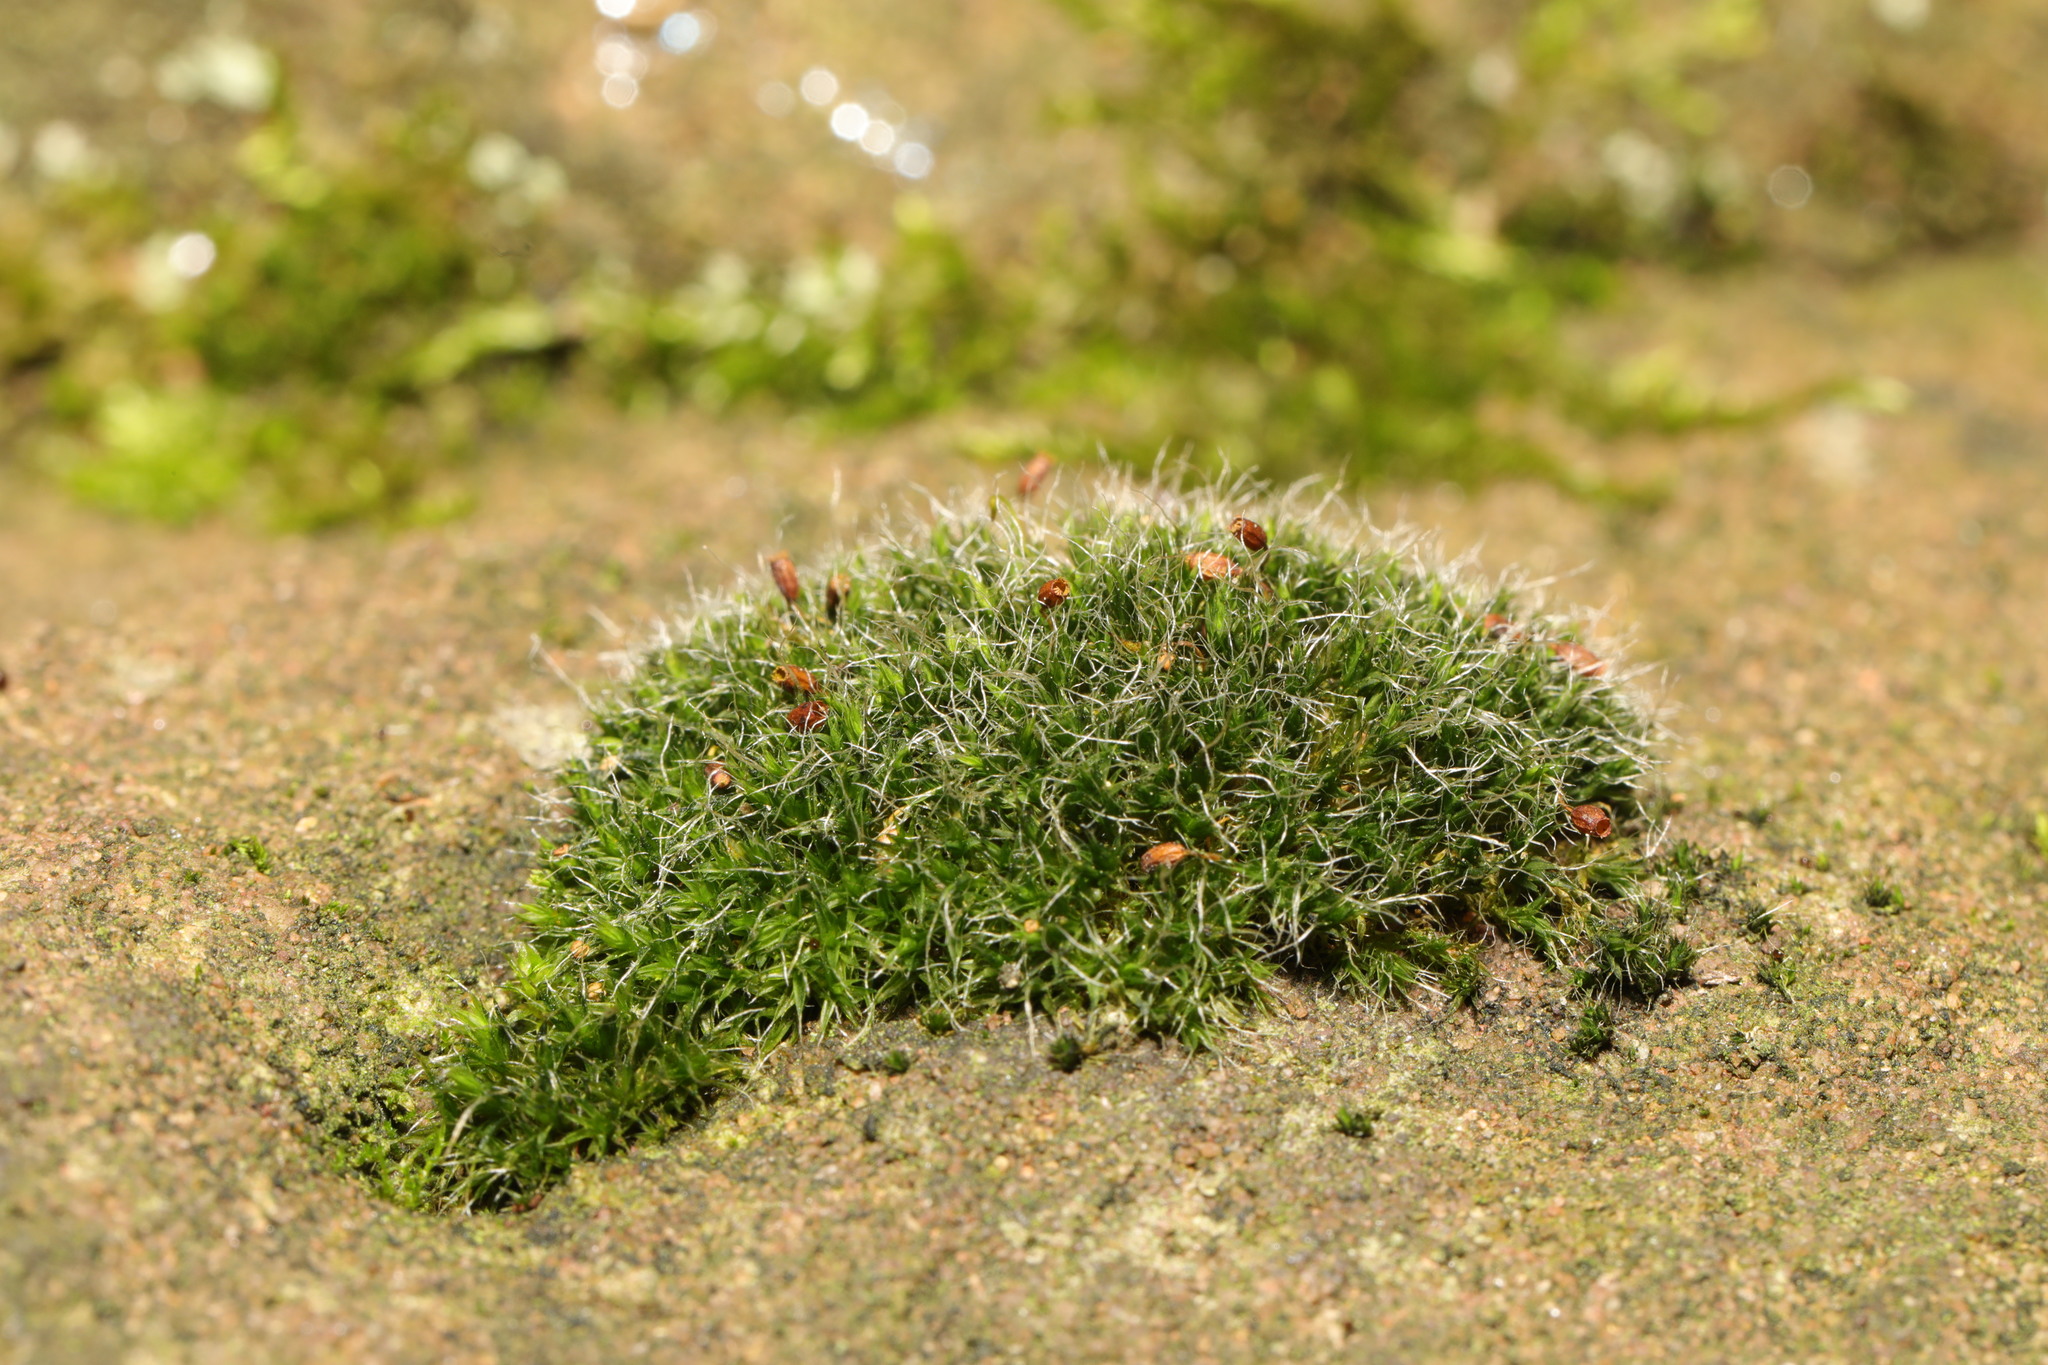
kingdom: Plantae
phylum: Bryophyta
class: Bryopsida
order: Grimmiales
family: Grimmiaceae
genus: Grimmia
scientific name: Grimmia pulvinata
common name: Grey-cushioned grimmia
